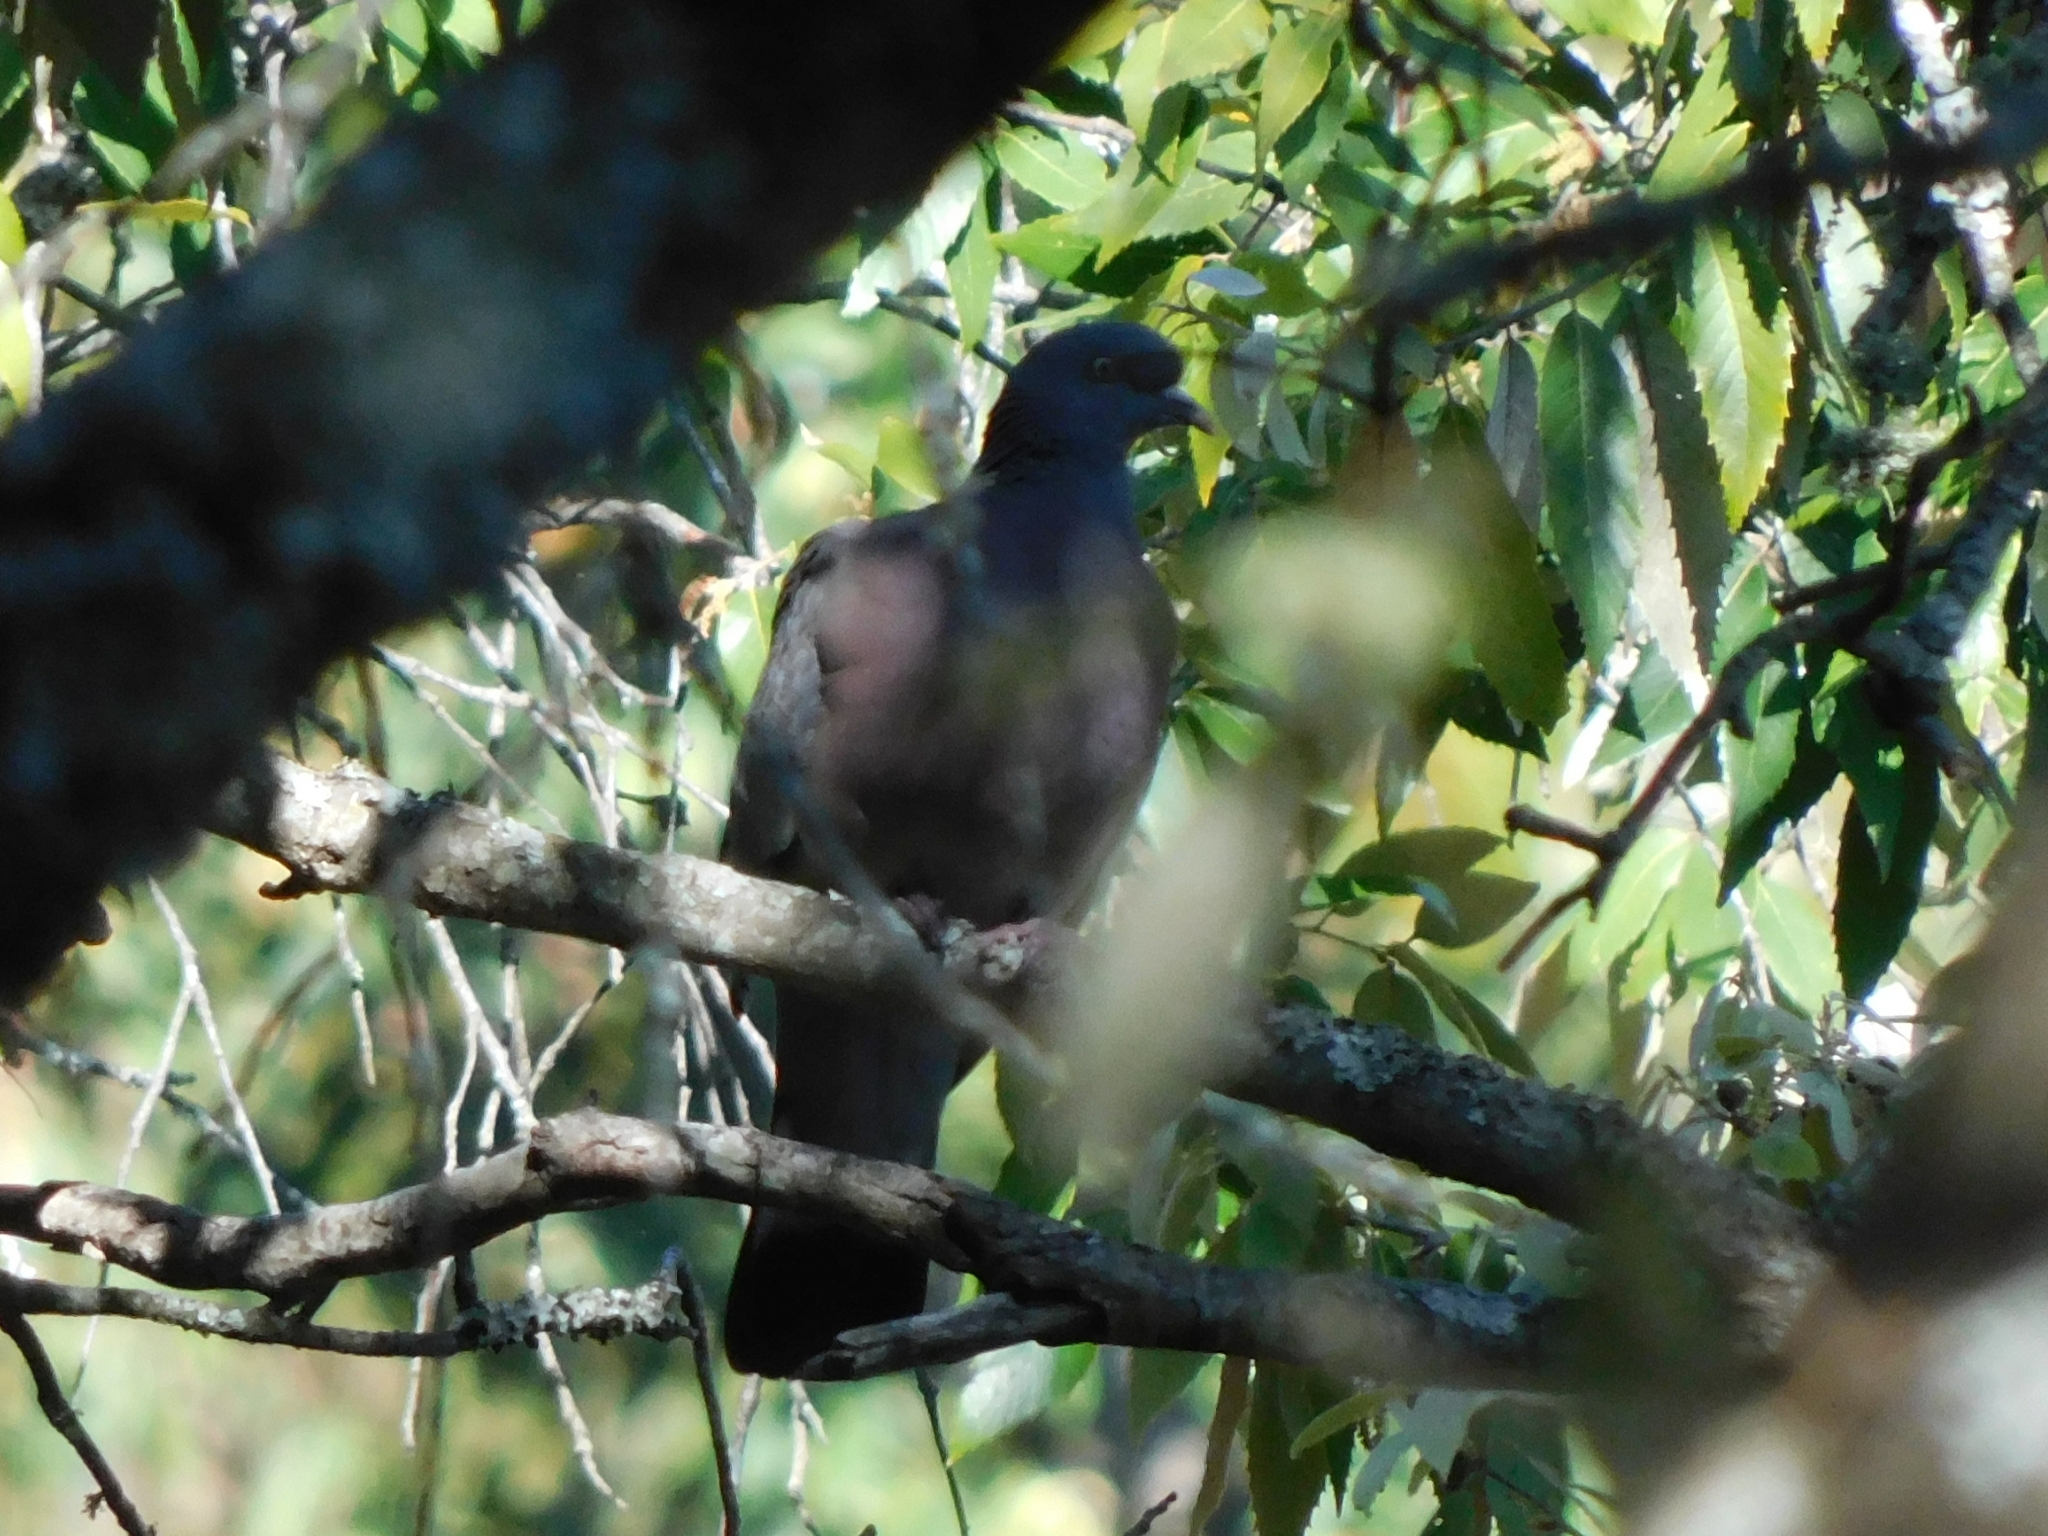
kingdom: Animalia
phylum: Chordata
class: Aves
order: Columbiformes
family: Columbidae
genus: Columba
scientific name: Columba palumbus
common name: Common wood pigeon
